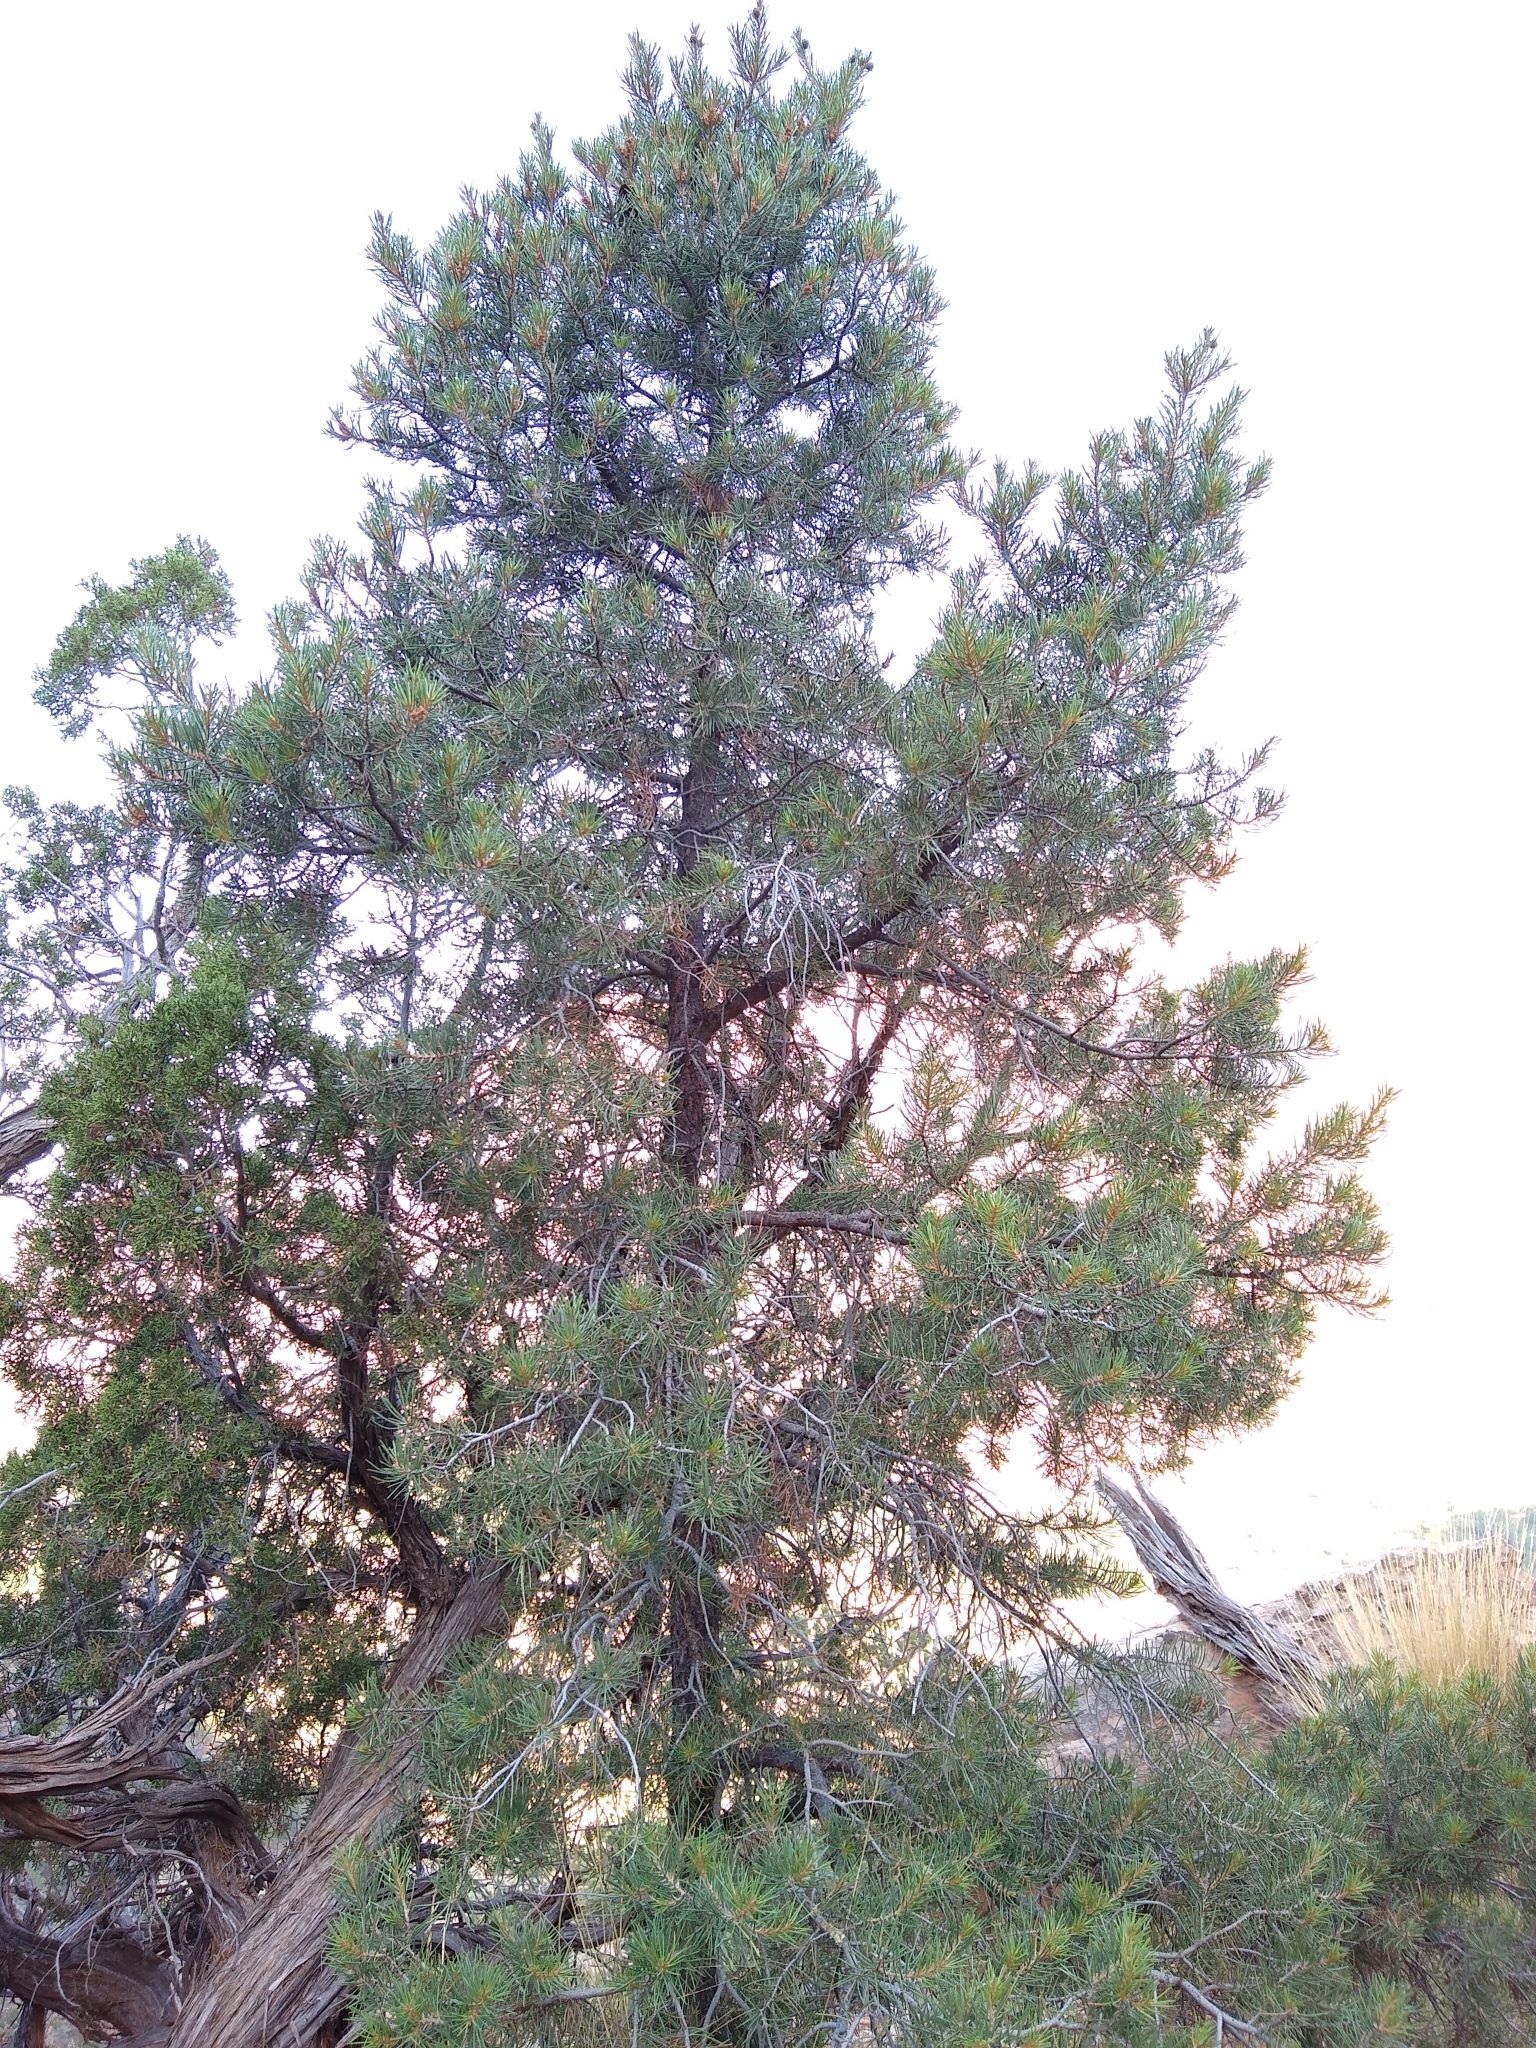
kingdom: Plantae
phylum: Tracheophyta
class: Pinopsida
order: Pinales
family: Pinaceae
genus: Pinus
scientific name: Pinus monophylla
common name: One-leaved nut pine
